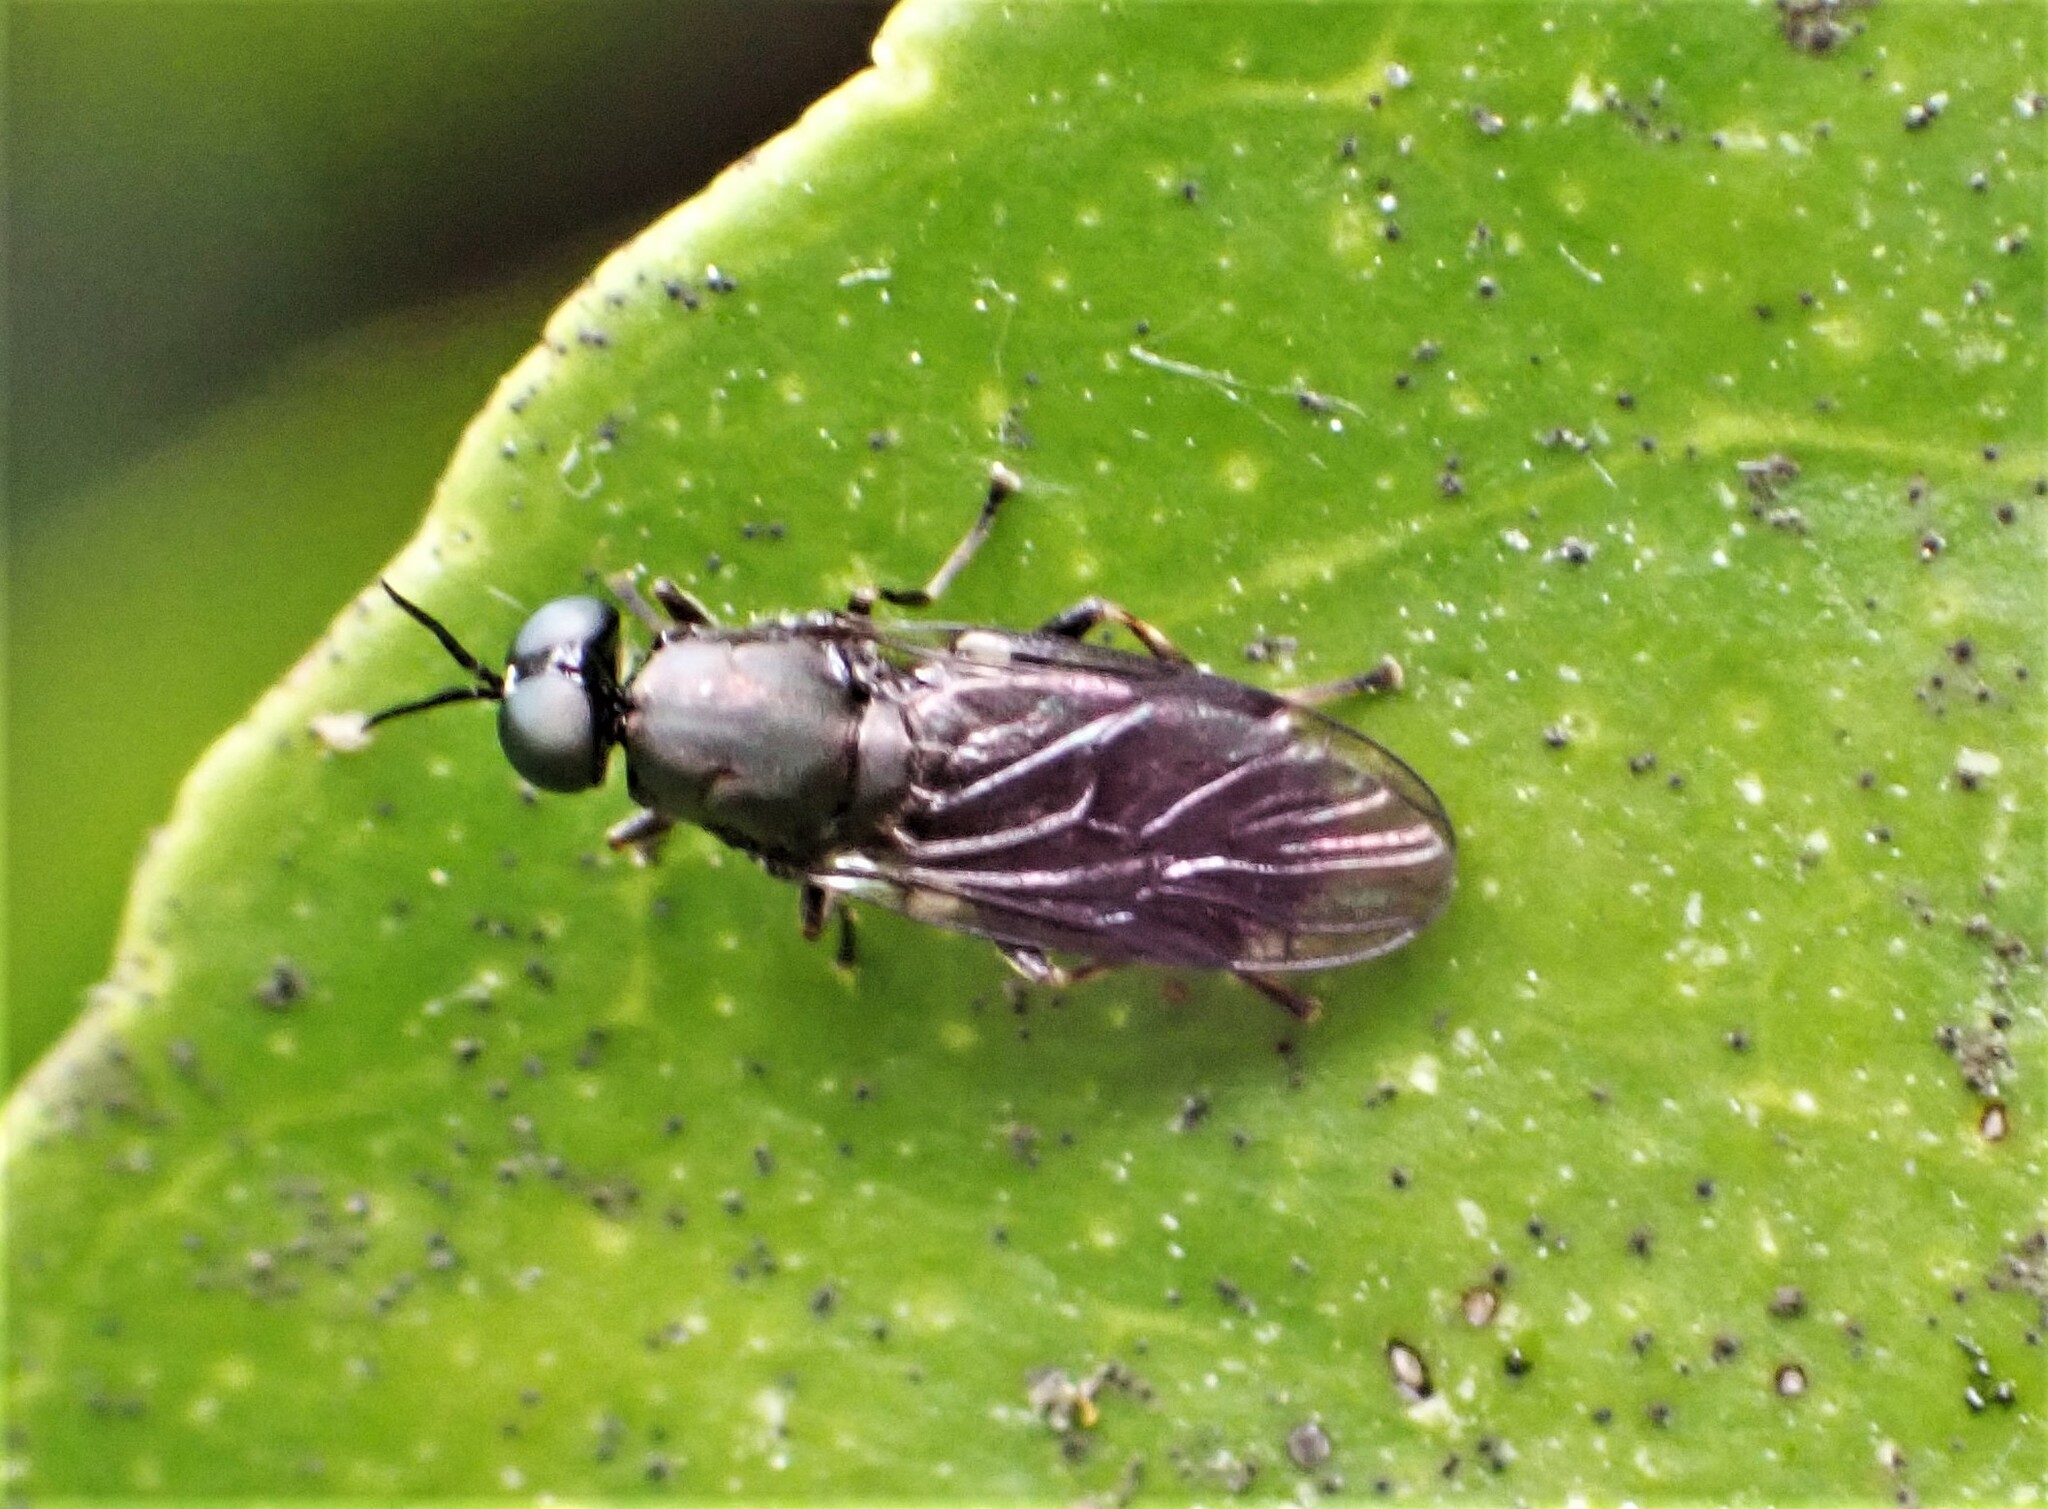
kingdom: Animalia
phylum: Arthropoda
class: Insecta
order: Diptera
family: Stratiomyidae
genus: Zealandoberis
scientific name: Zealandoberis violacea
